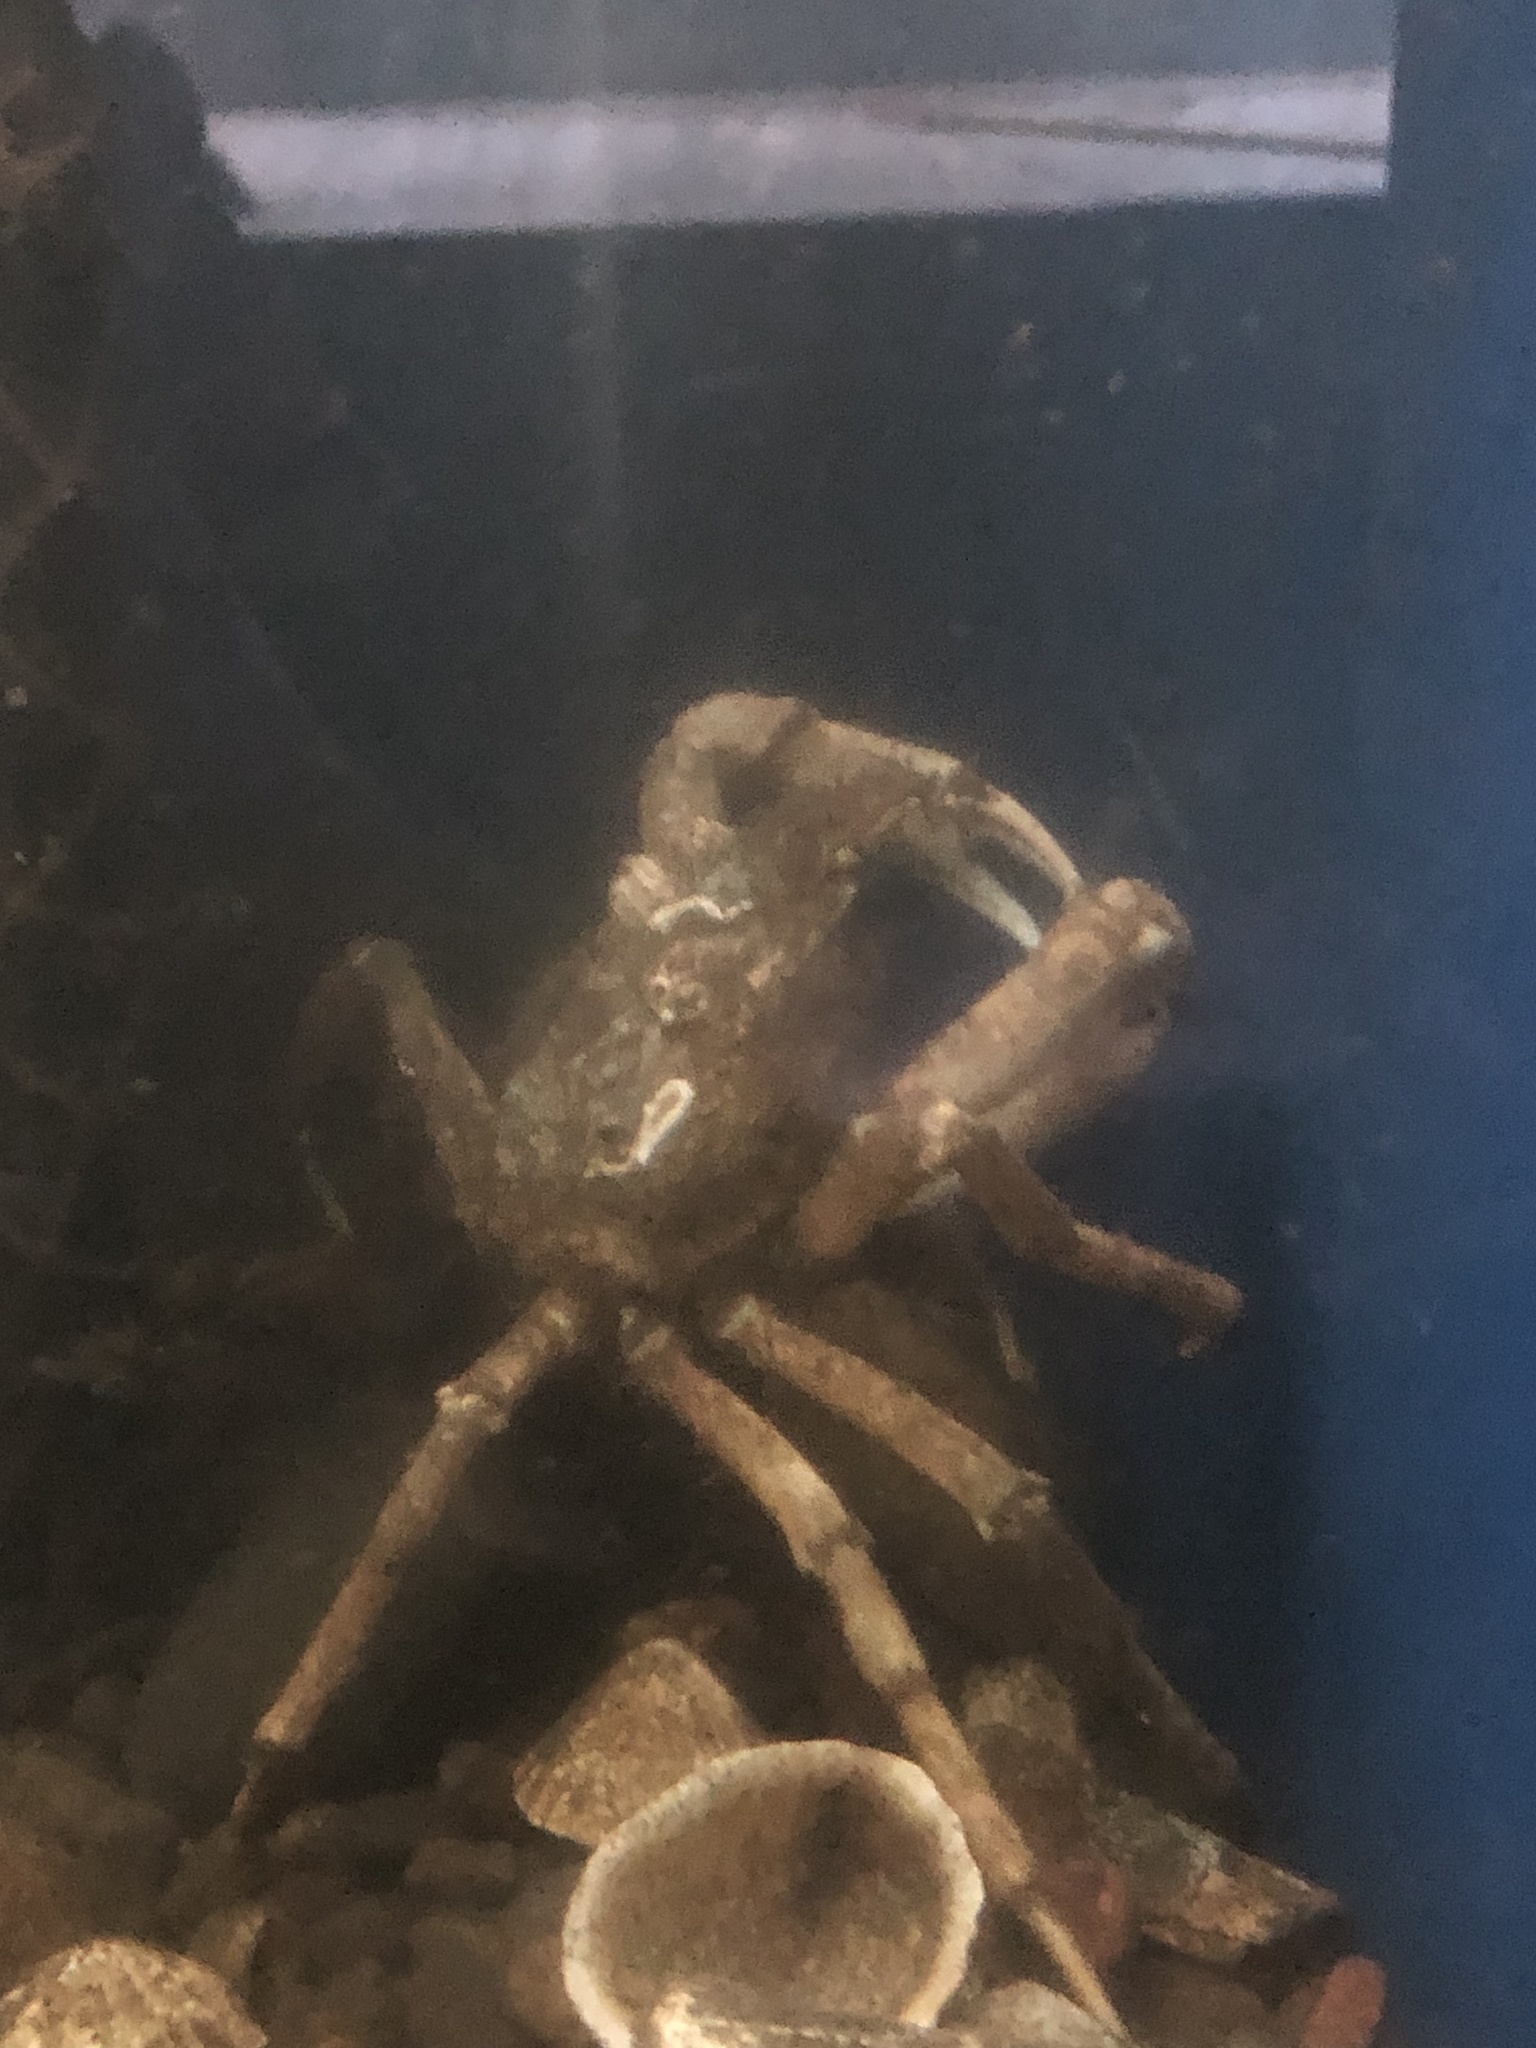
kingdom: Animalia
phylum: Arthropoda
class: Malacostraca
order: Decapoda
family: Oregoniidae
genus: Hyas
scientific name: Hyas araneus
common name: Great spider crab
